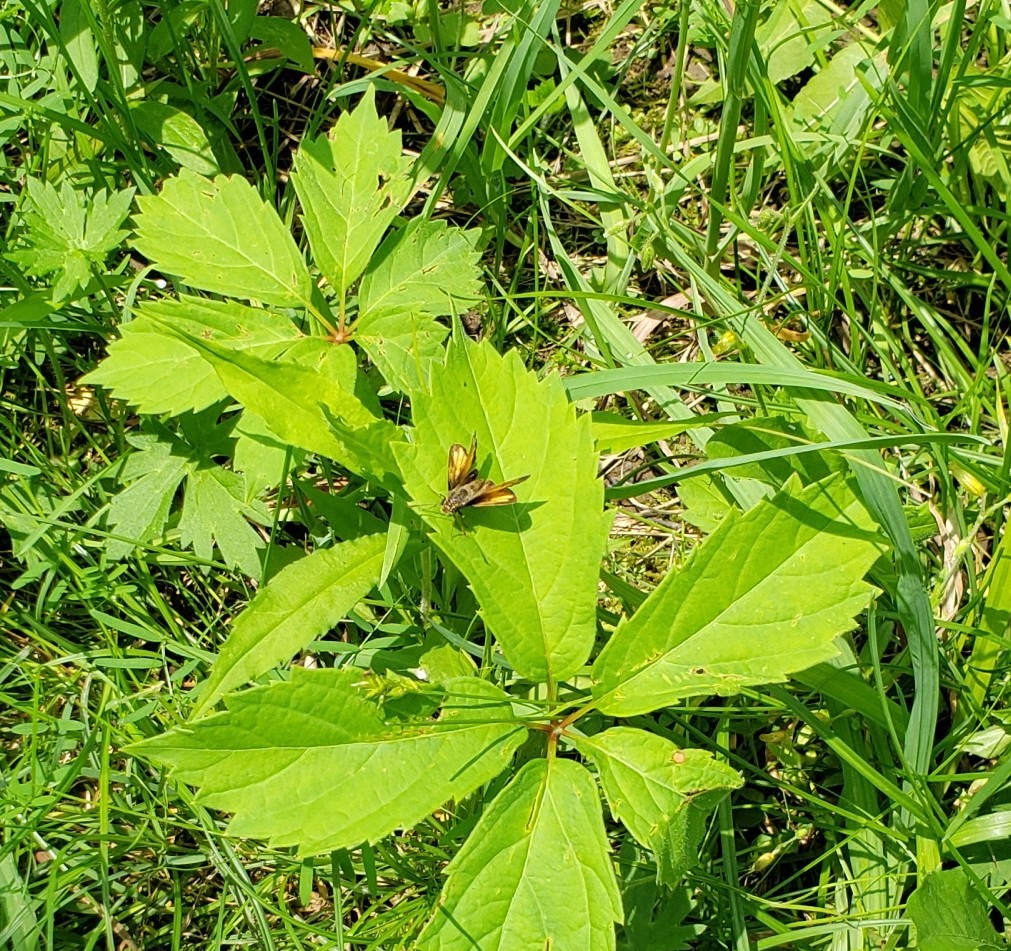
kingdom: Animalia
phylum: Arthropoda
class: Insecta
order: Lepidoptera
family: Hesperiidae
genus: Lon
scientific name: Lon hobomok
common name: Hobomok skipper
